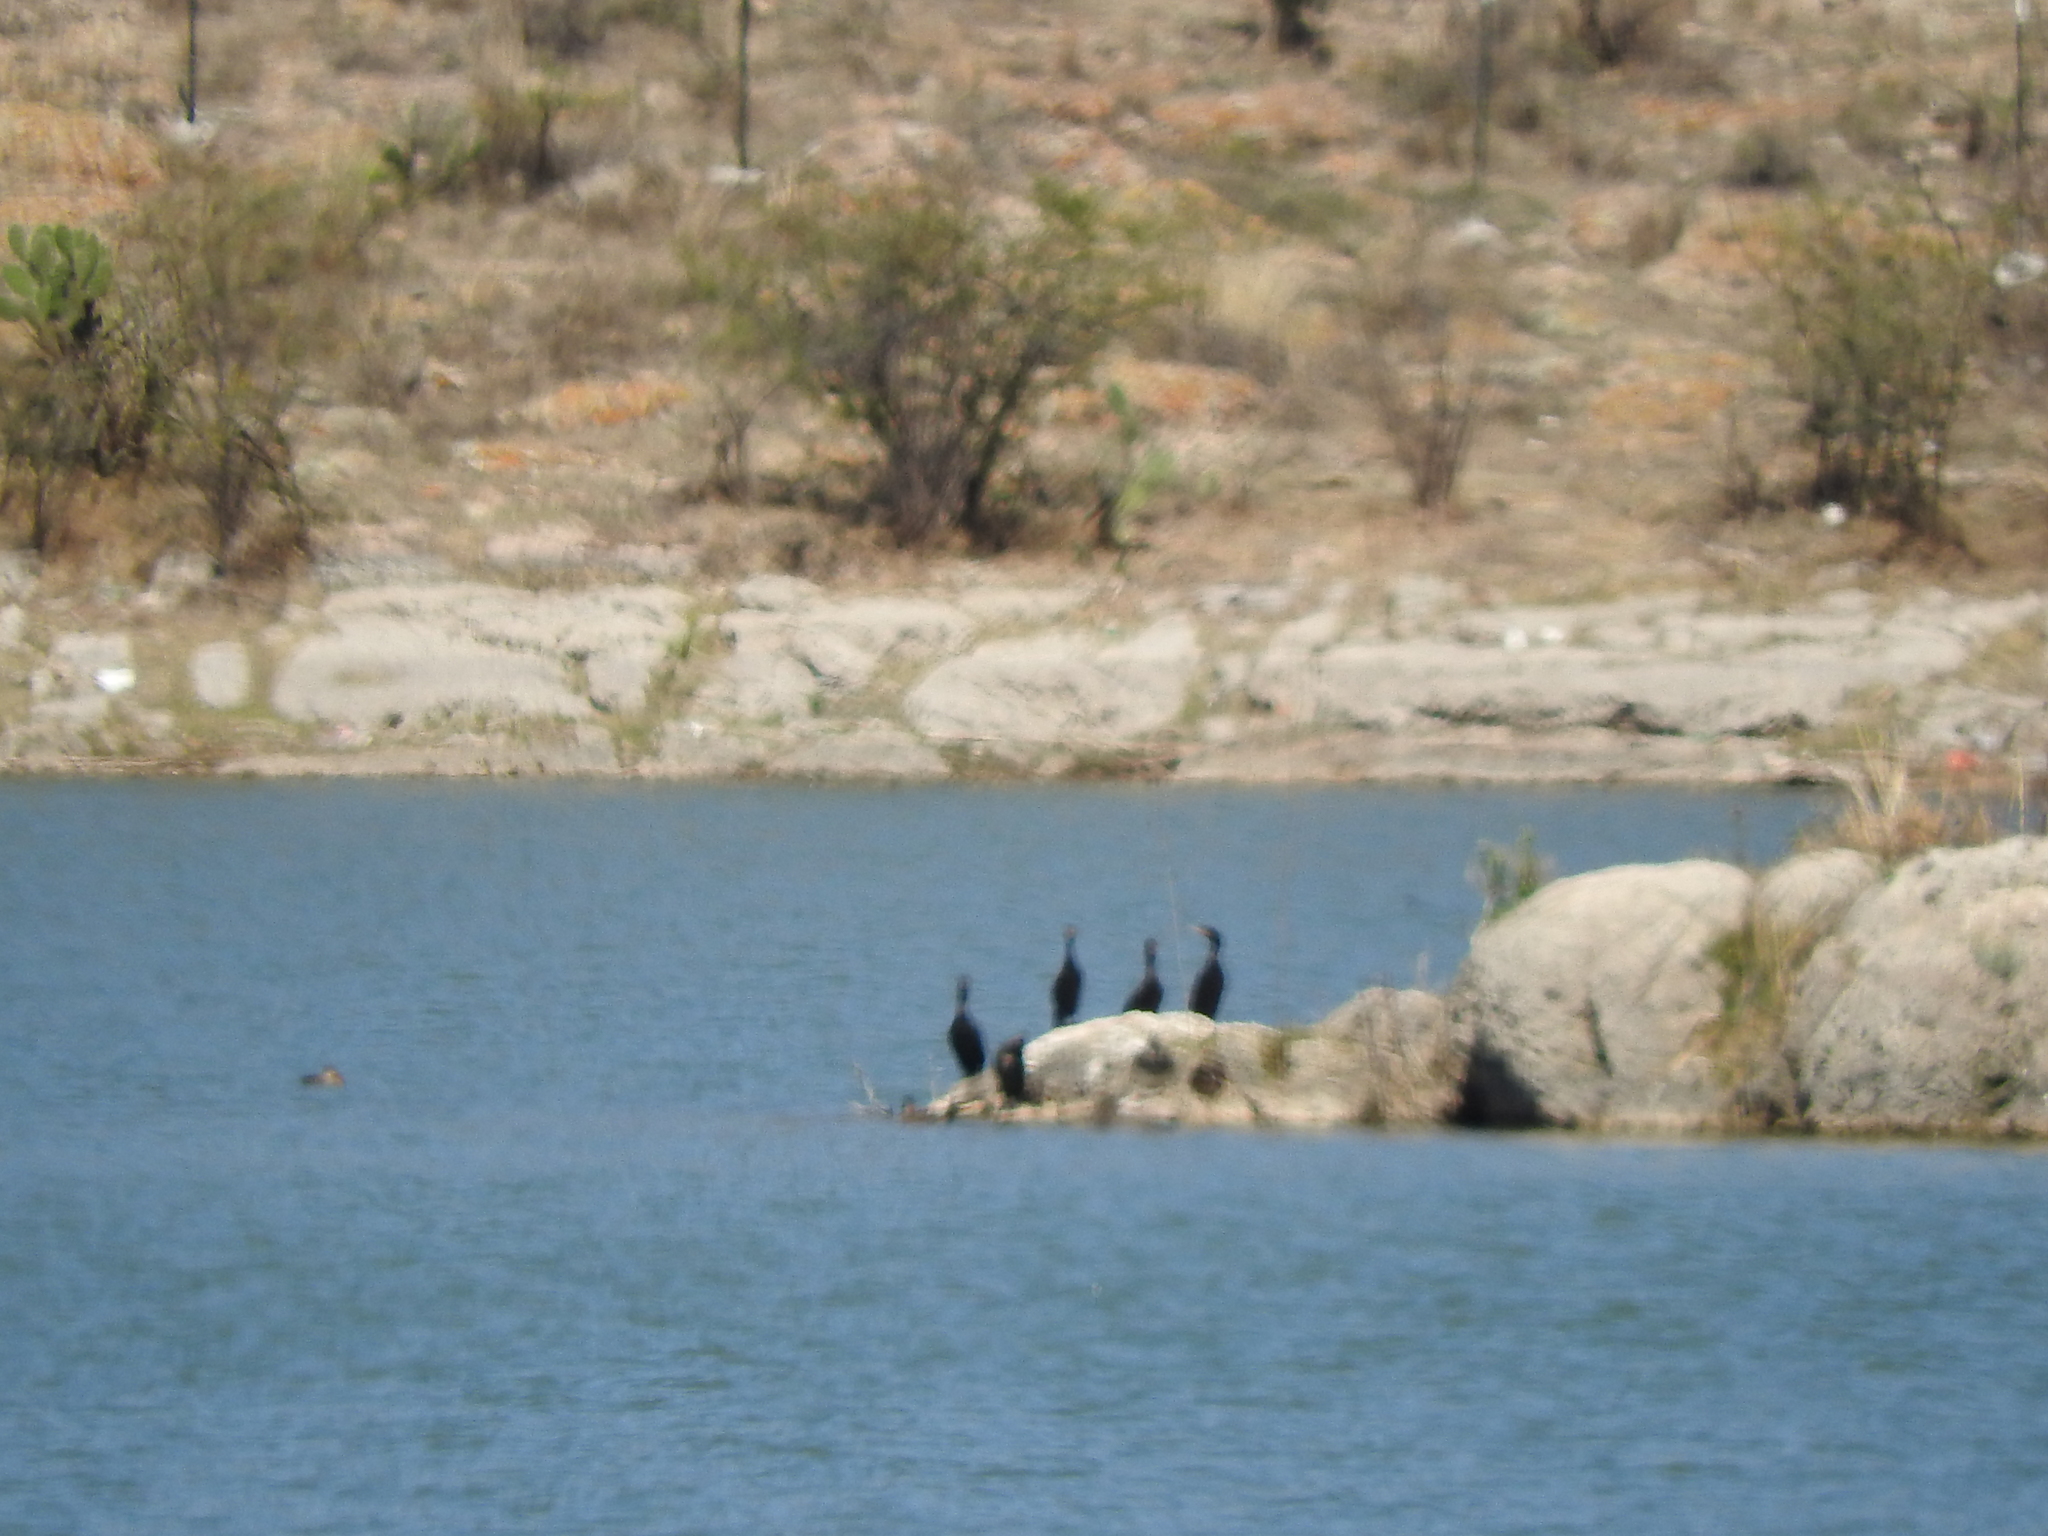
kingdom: Animalia
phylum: Chordata
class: Aves
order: Suliformes
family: Phalacrocoracidae
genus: Phalacrocorax
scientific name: Phalacrocorax brasilianus
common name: Neotropic cormorant
